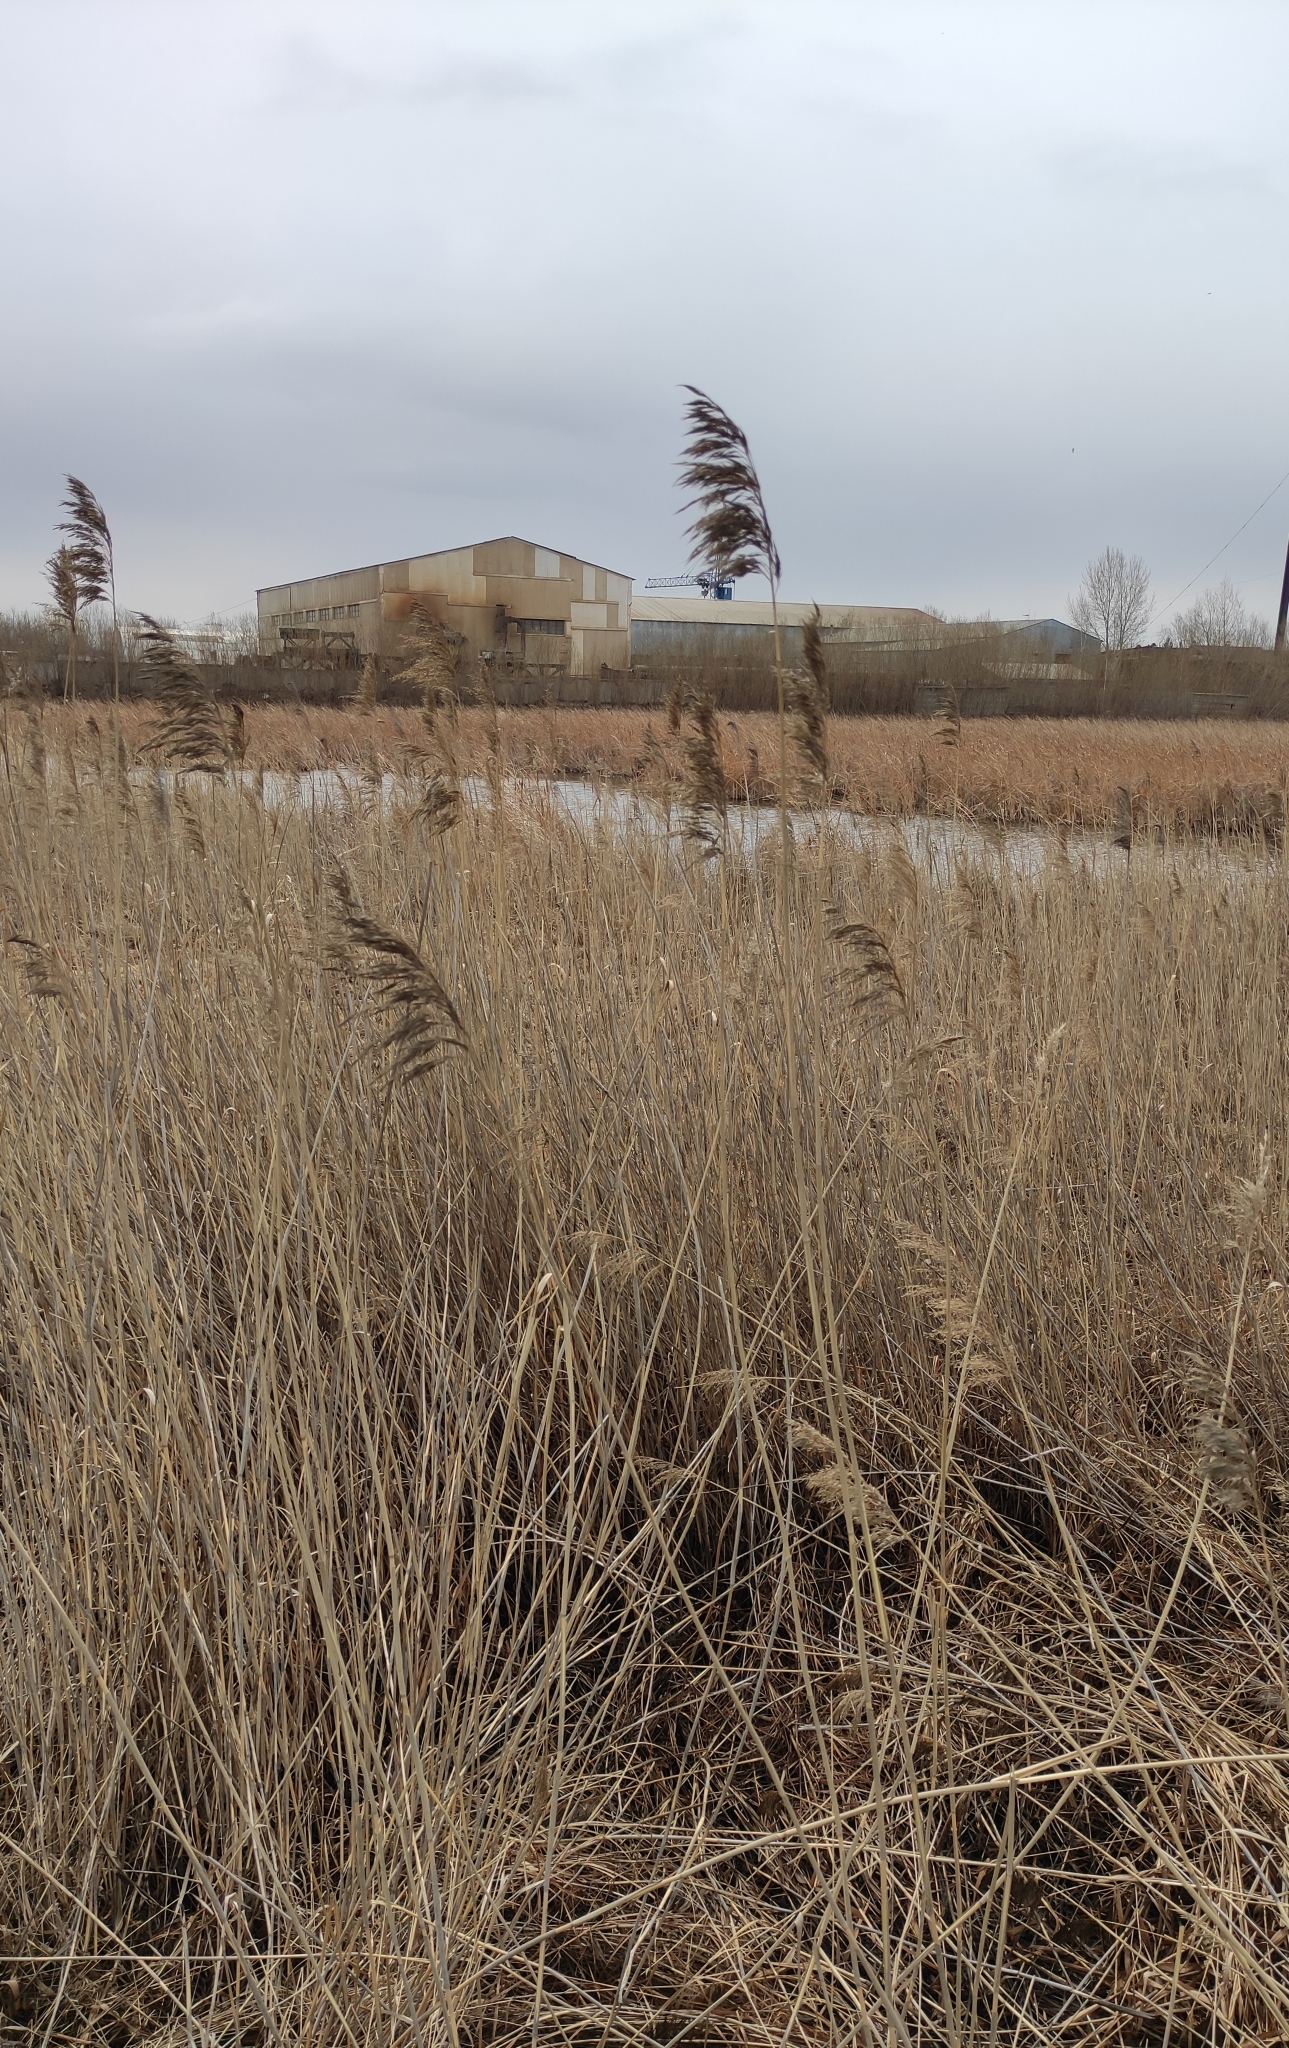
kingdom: Plantae
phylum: Tracheophyta
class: Liliopsida
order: Poales
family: Poaceae
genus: Phragmites
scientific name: Phragmites australis
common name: Common reed
